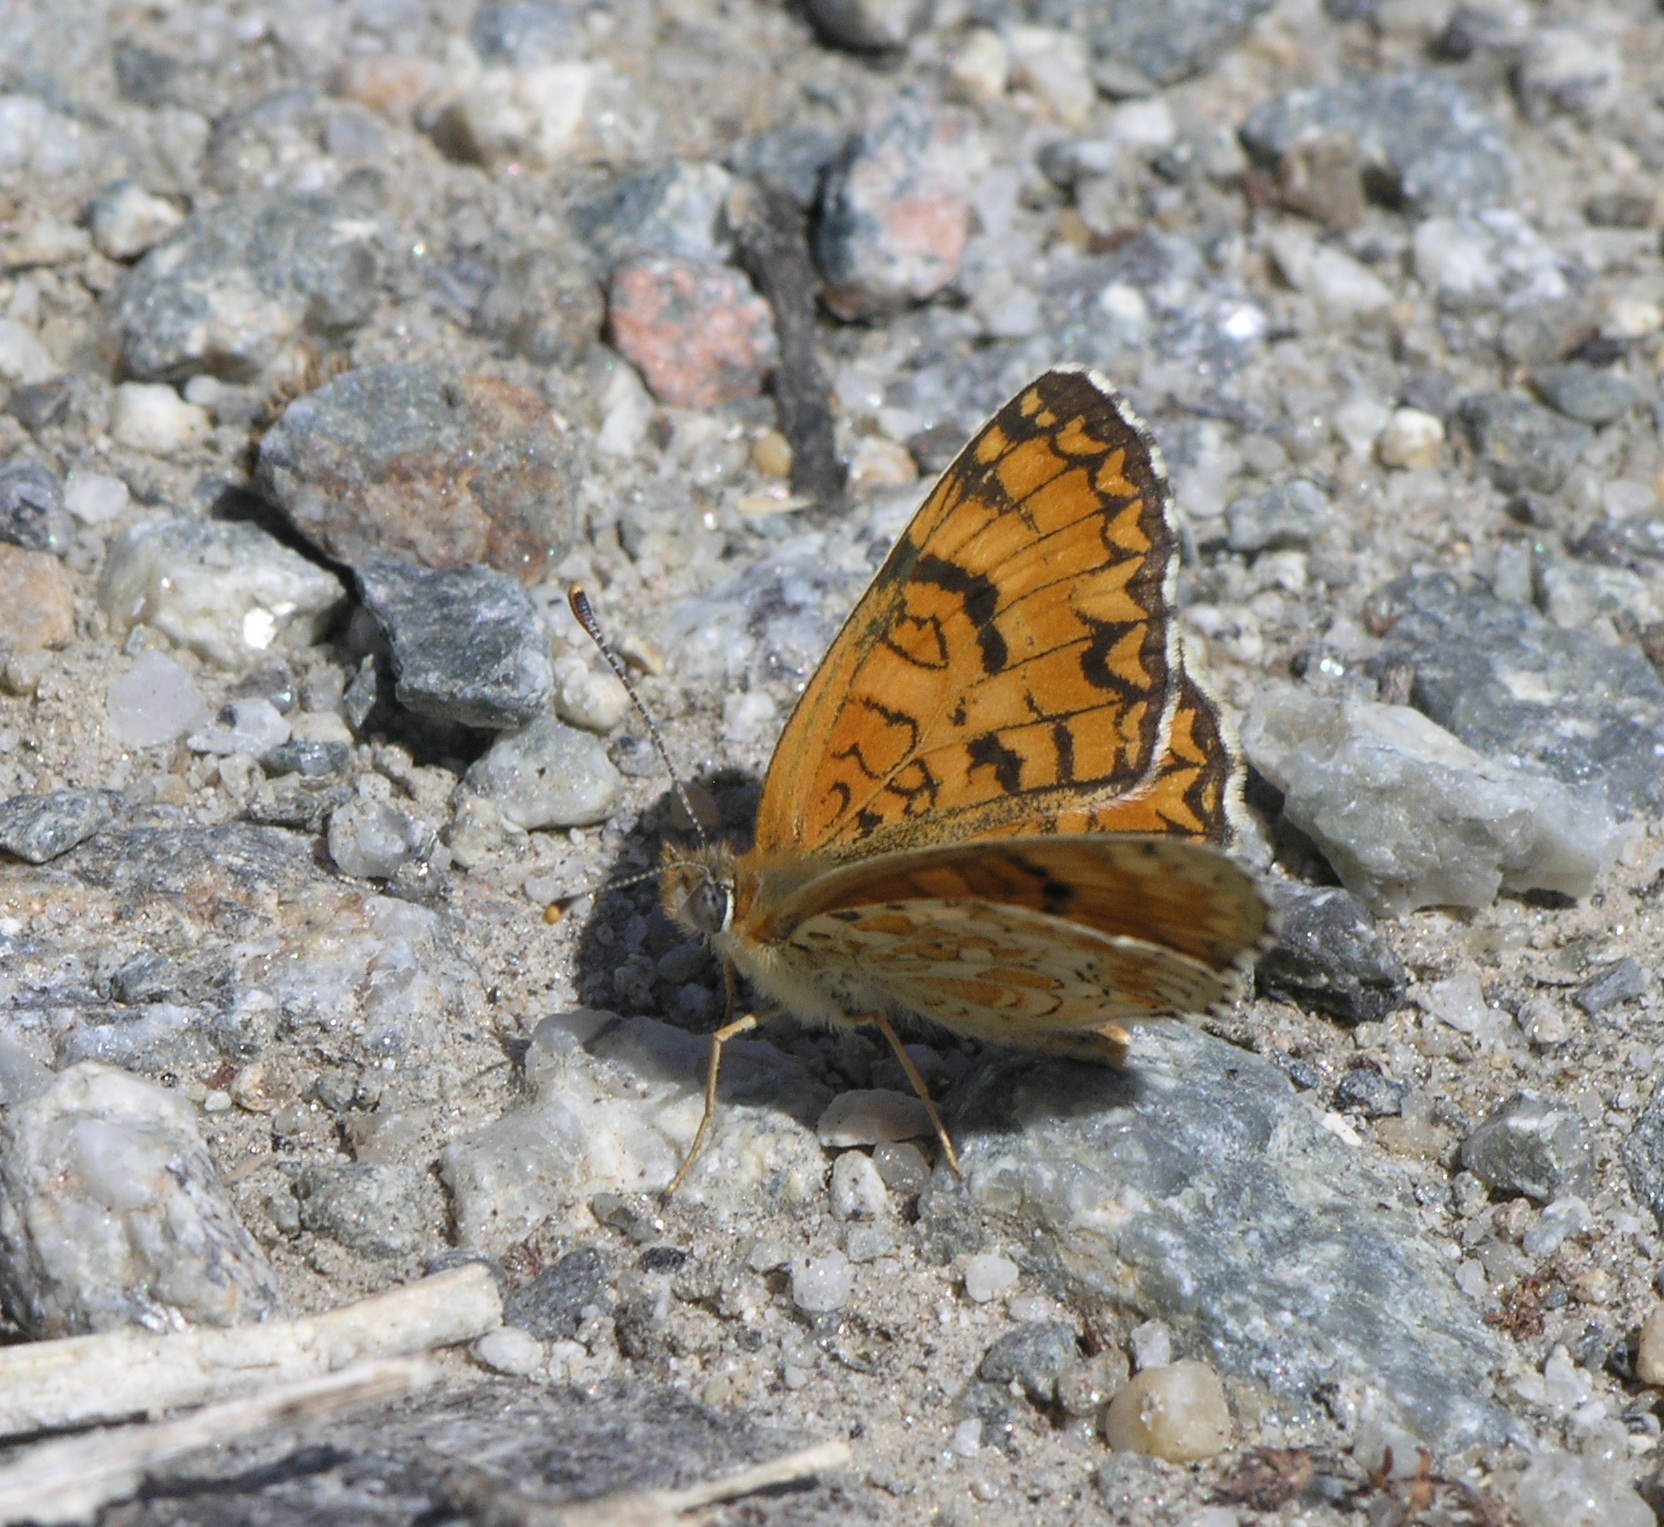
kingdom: Animalia
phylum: Arthropoda
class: Insecta
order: Lepidoptera
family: Nymphalidae
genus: Melitaea
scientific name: Melitaea phoebe
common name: Knapweed fritillary
